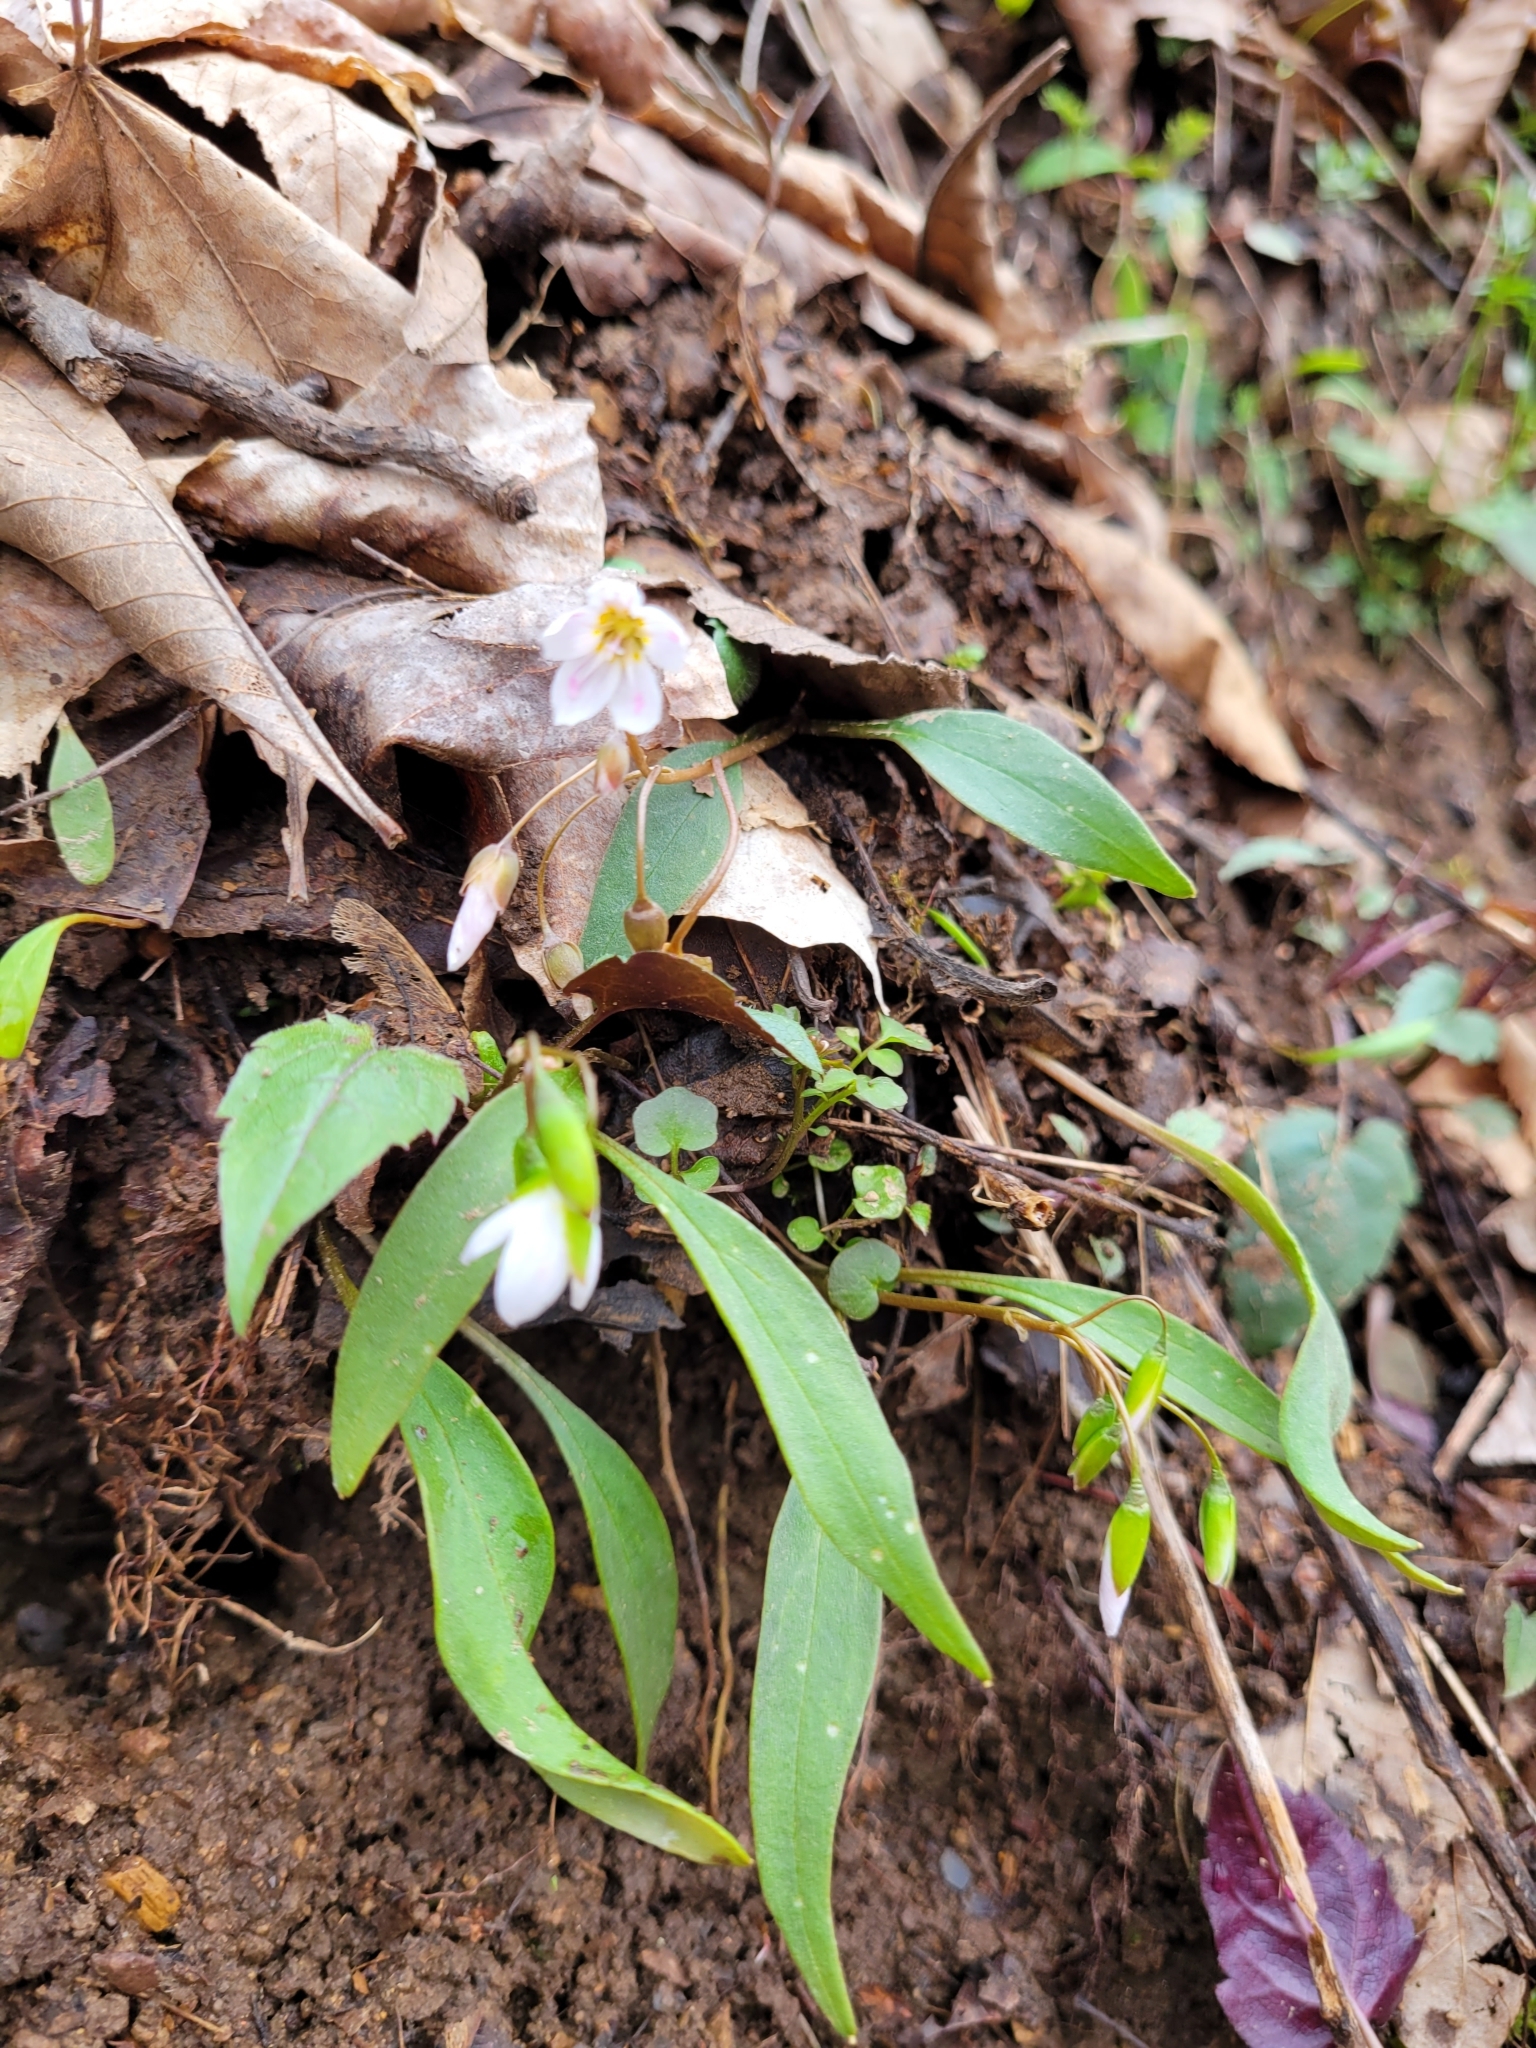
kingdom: Plantae
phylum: Tracheophyta
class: Magnoliopsida
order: Caryophyllales
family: Montiaceae
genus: Claytonia
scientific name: Claytonia caroliniana
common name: Carolina spring beauty
